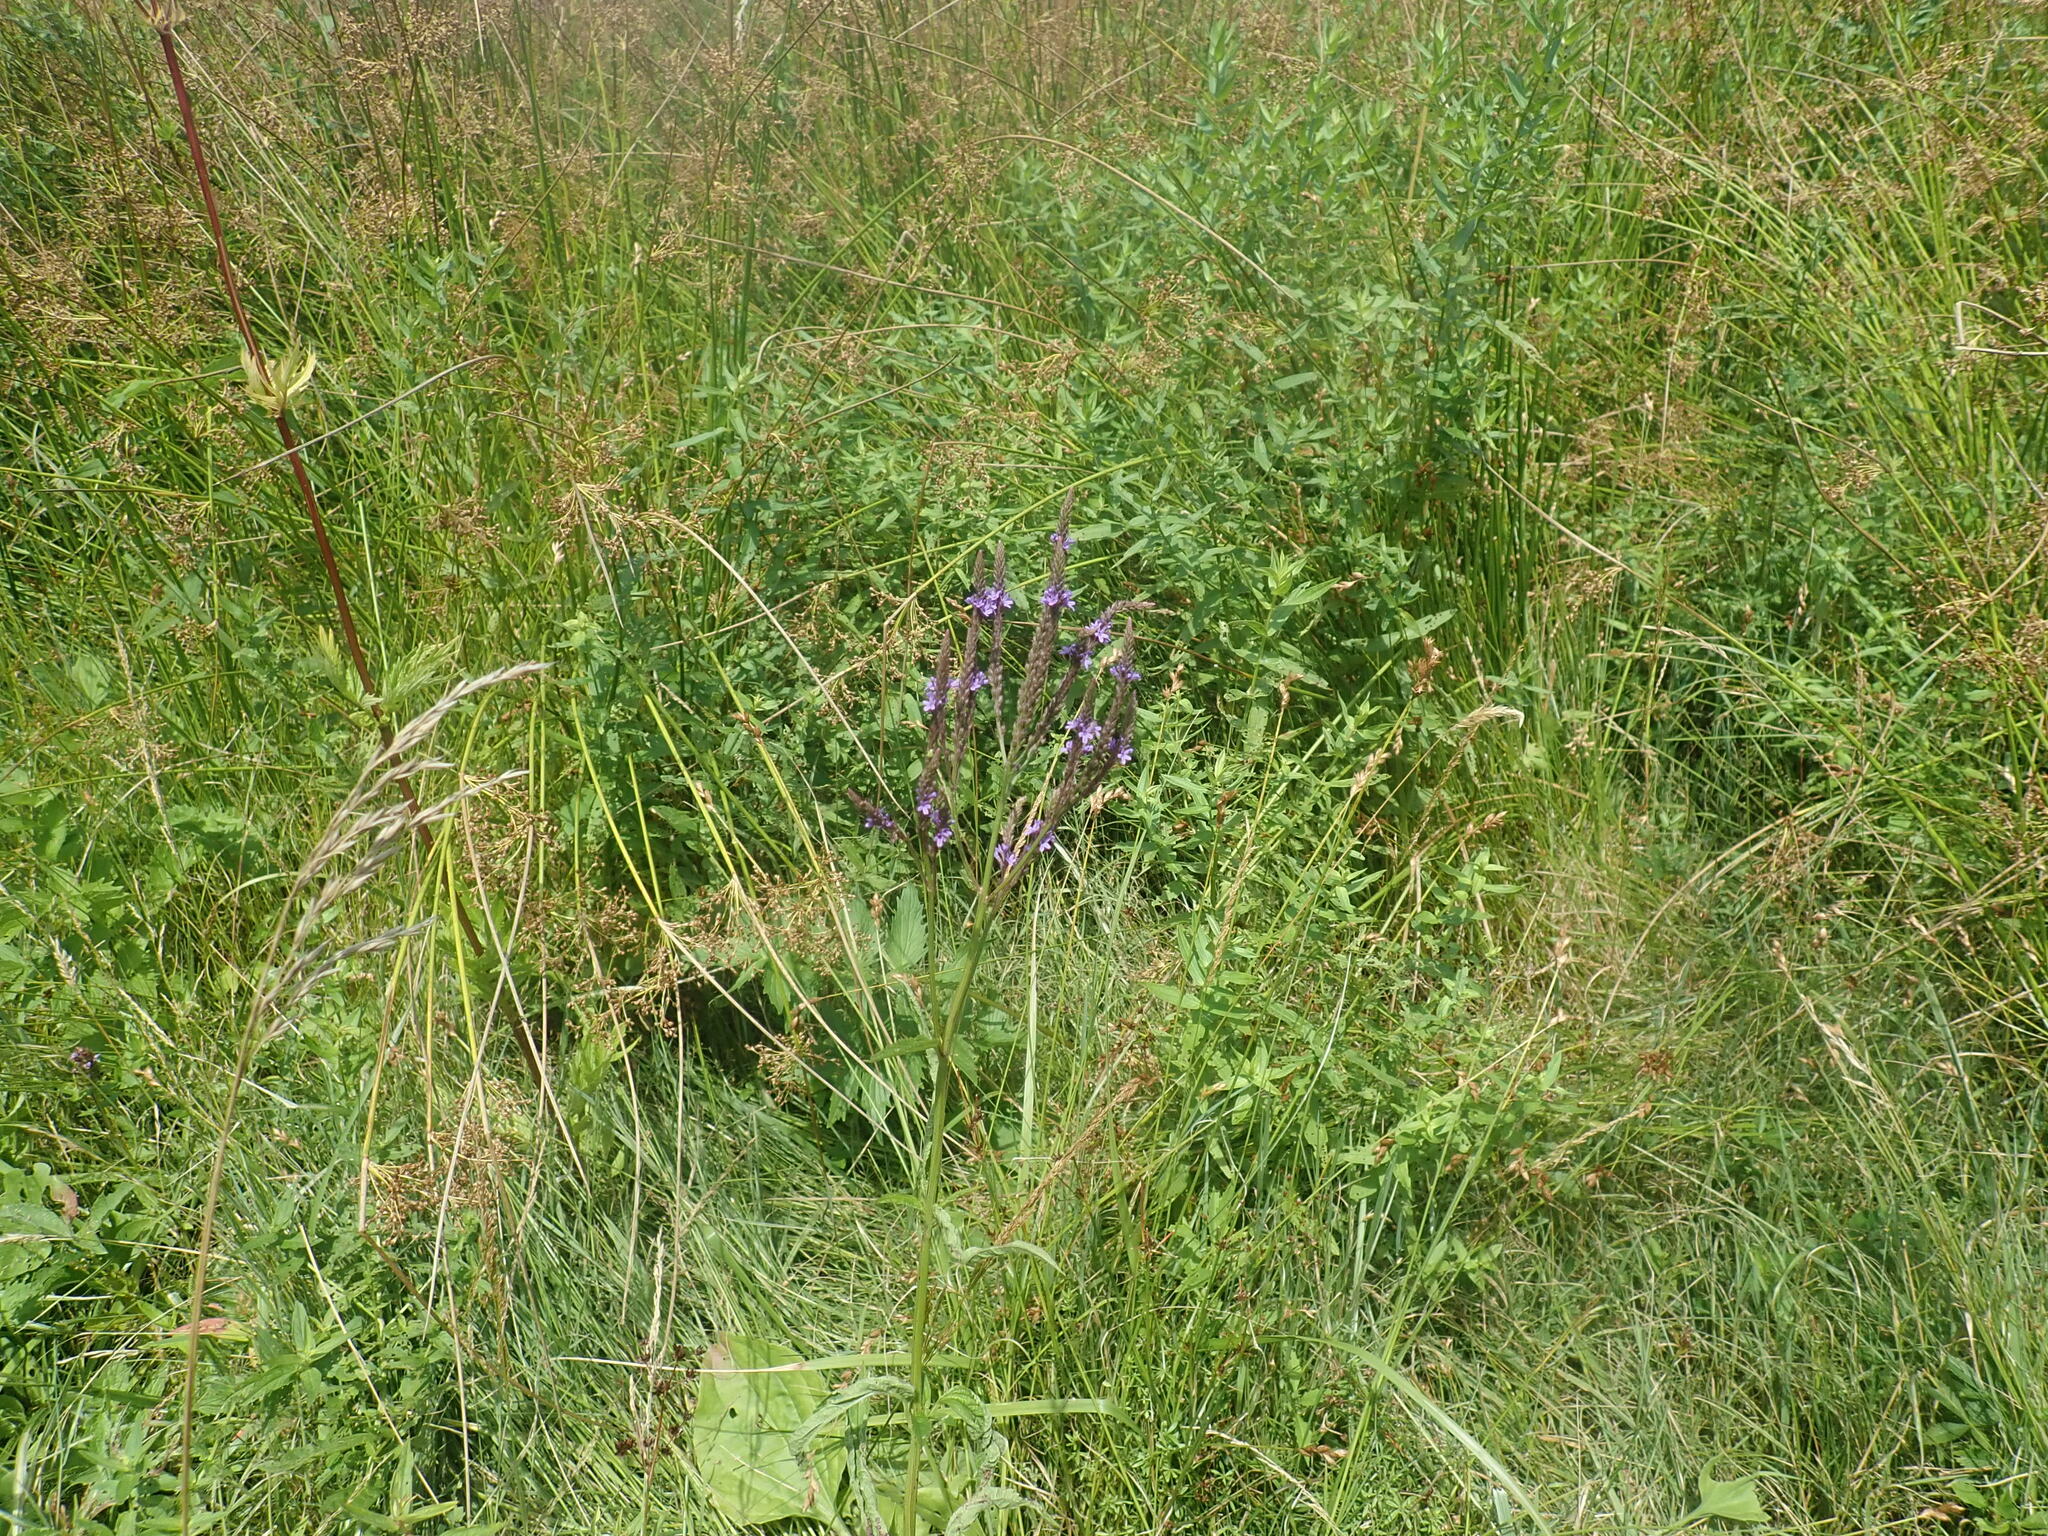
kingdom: Plantae
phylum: Tracheophyta
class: Magnoliopsida
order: Lamiales
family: Verbenaceae
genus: Verbena
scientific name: Verbena hastata
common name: American blue vervain
